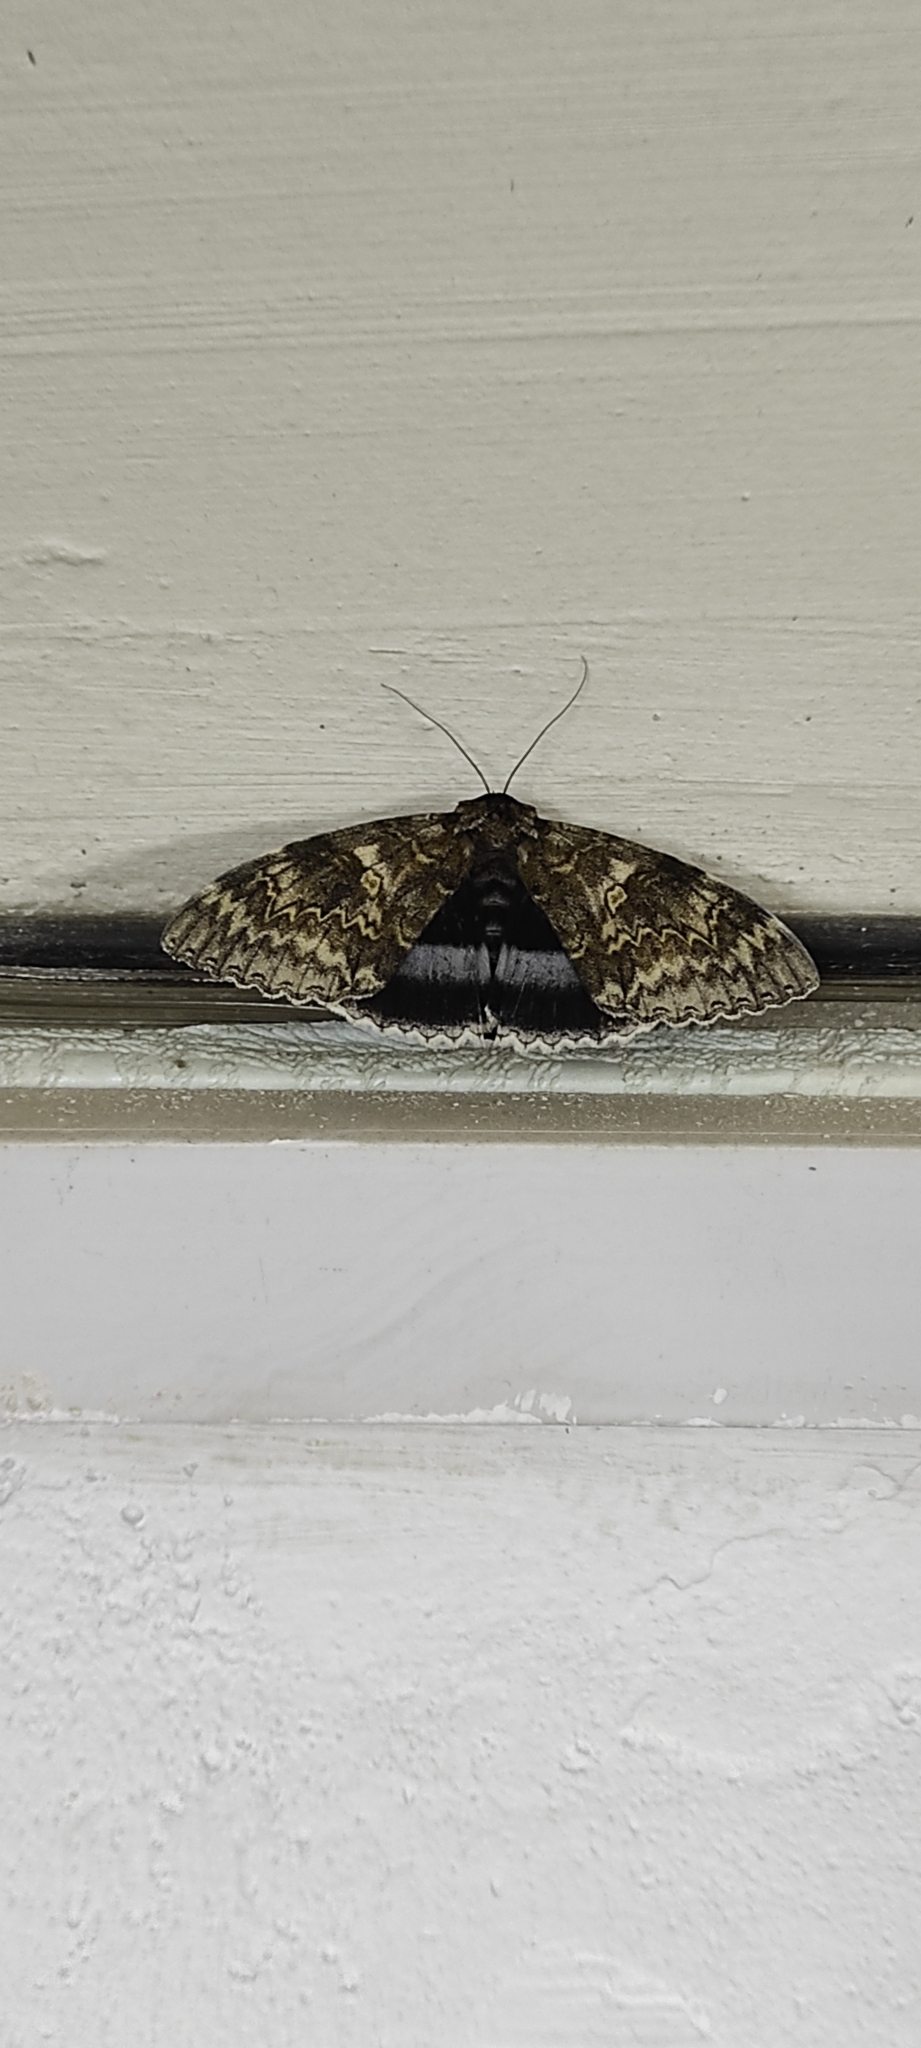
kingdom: Animalia
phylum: Arthropoda
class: Insecta
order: Lepidoptera
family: Erebidae
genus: Catocala
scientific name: Catocala fraxini
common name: Clifden nonpareil
